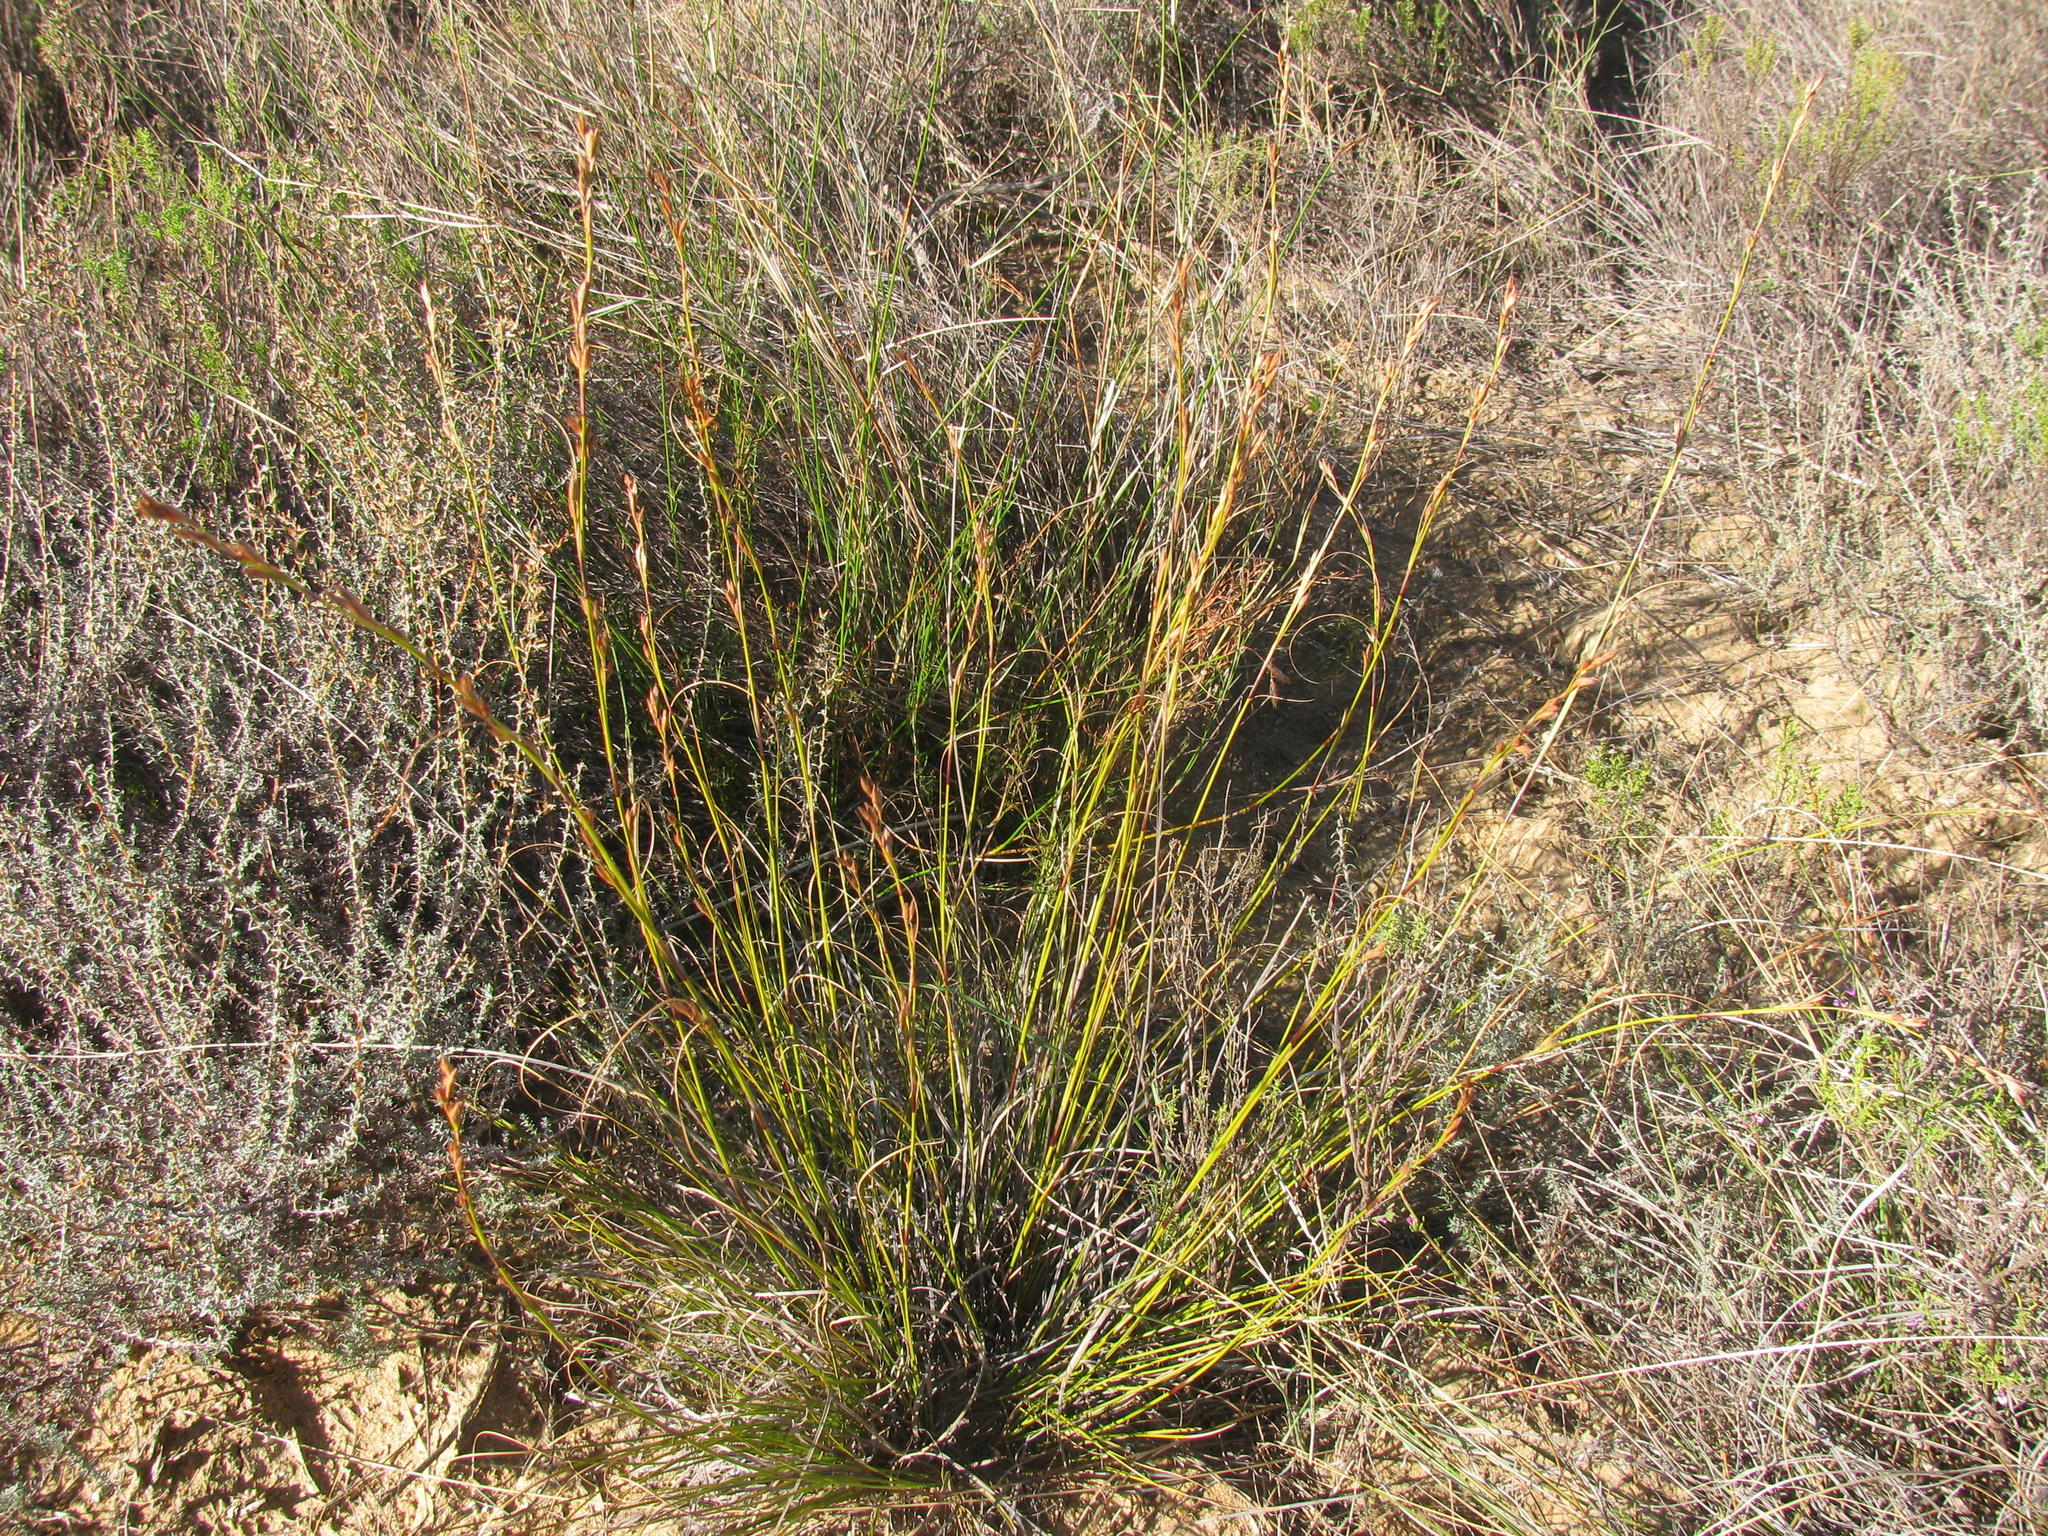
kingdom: Plantae
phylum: Tracheophyta
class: Liliopsida
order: Poales
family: Cyperaceae
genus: Tetraria
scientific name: Tetraria nigrovaginata
